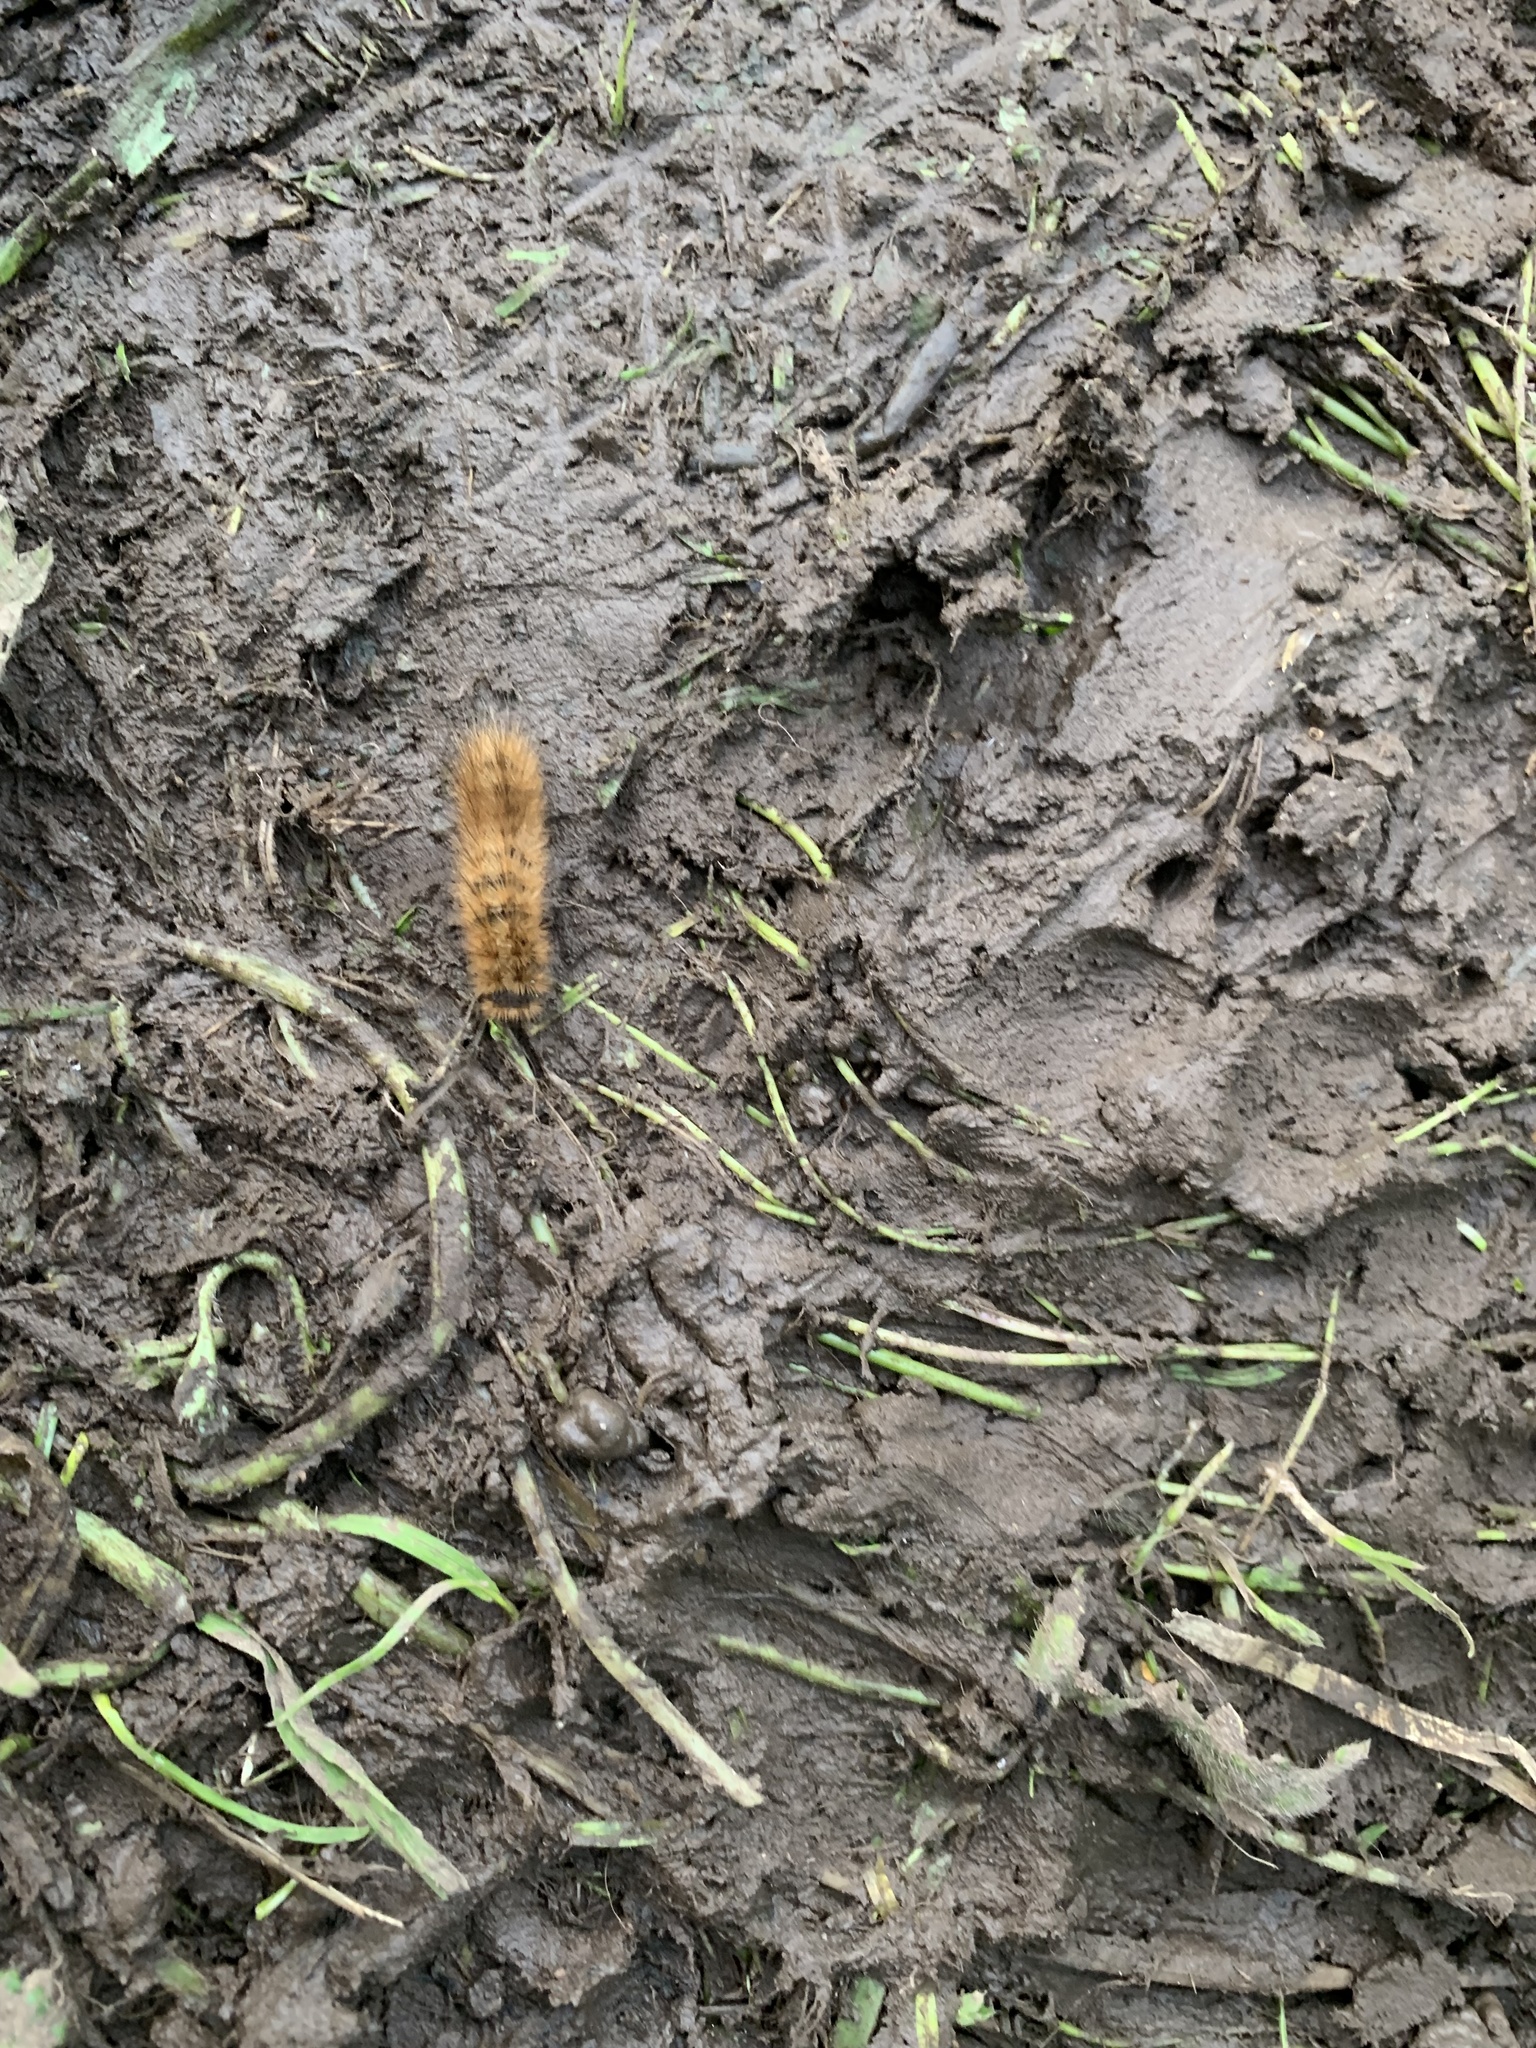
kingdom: Animalia
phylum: Arthropoda
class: Insecta
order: Lepidoptera
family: Erebidae
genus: Phragmatobia
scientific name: Phragmatobia fuliginosa
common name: Ruby tiger
